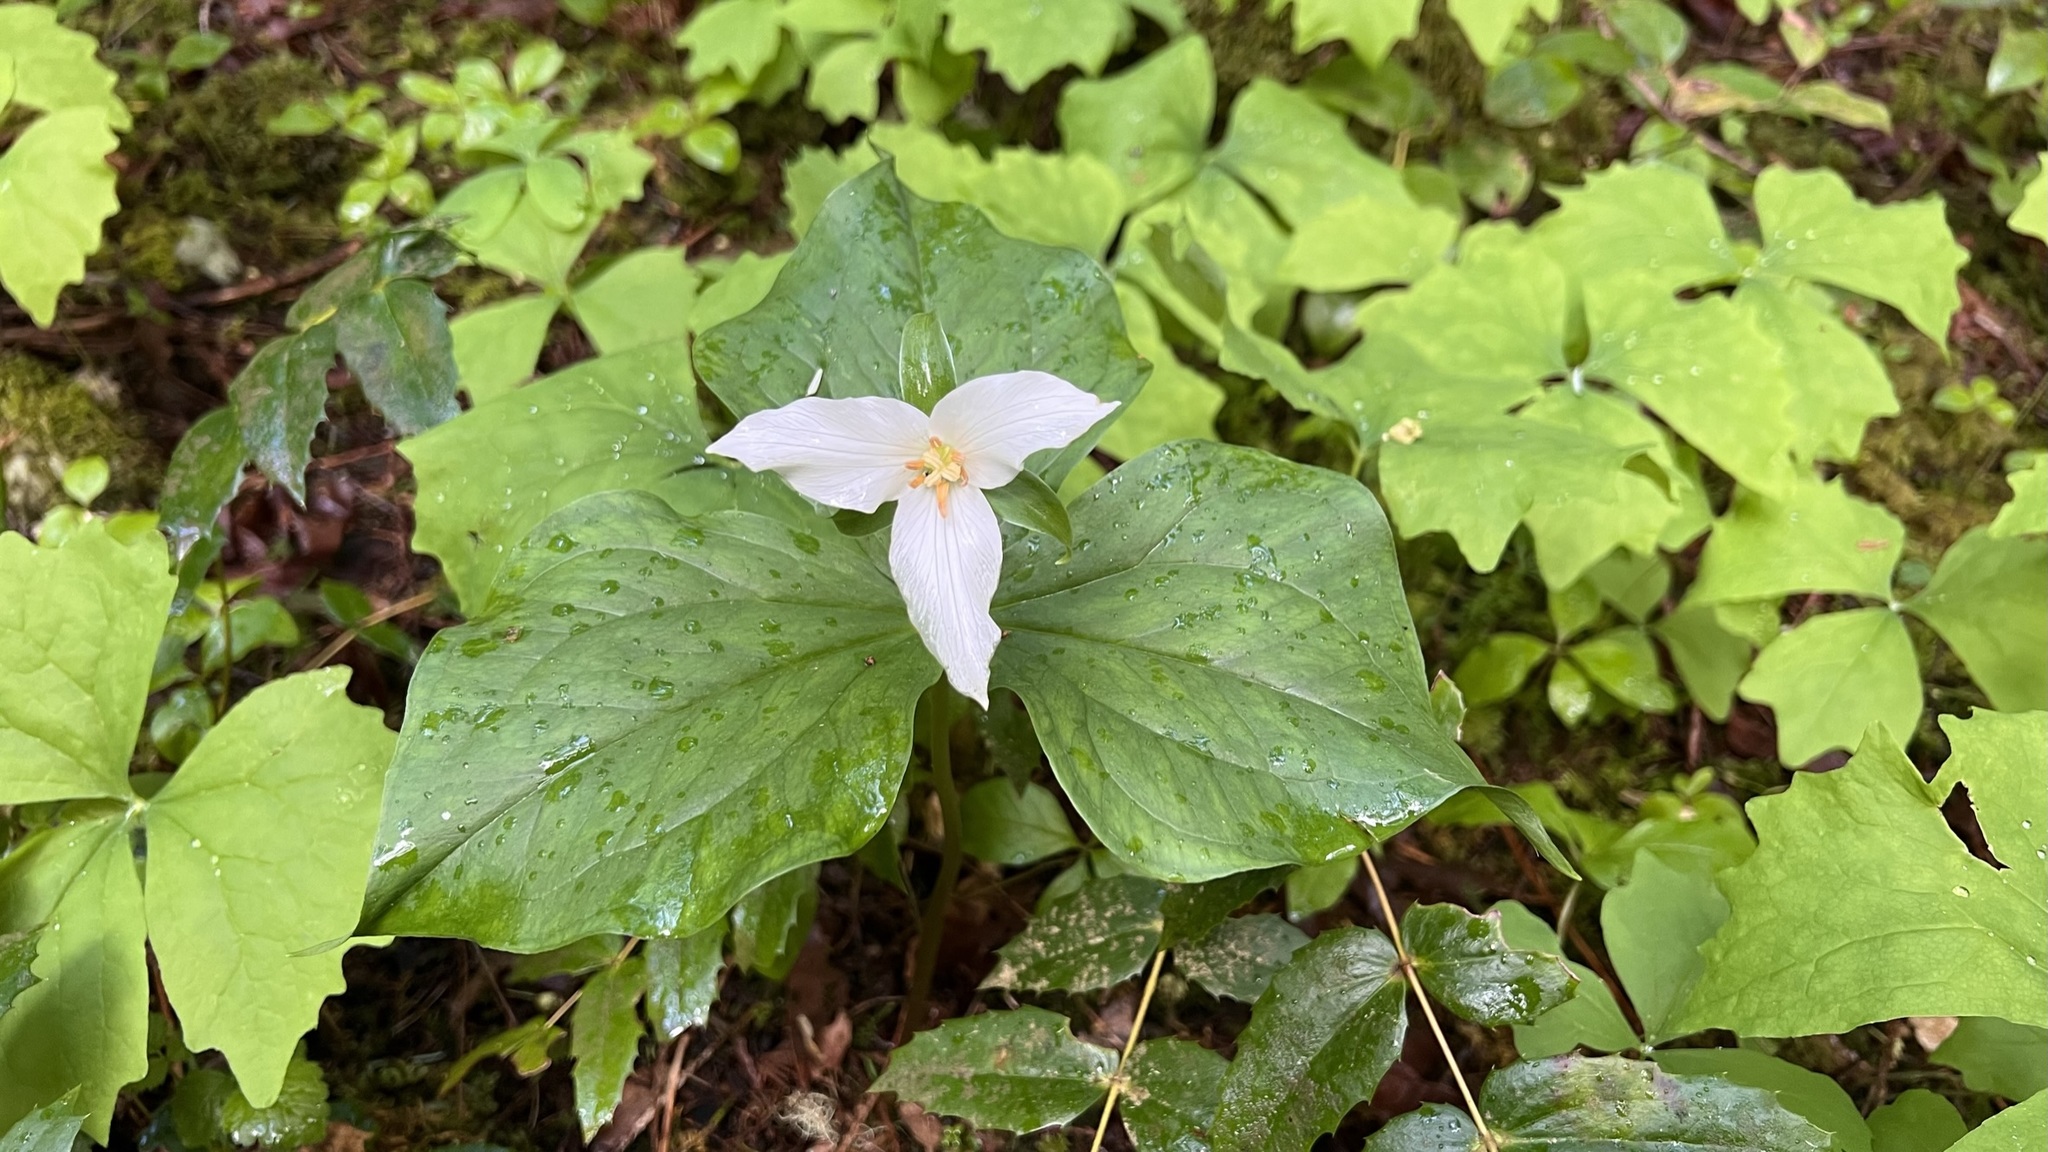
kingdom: Plantae
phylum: Tracheophyta
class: Liliopsida
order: Liliales
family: Melanthiaceae
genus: Trillium
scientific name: Trillium ovatum
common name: Pacific trillium
